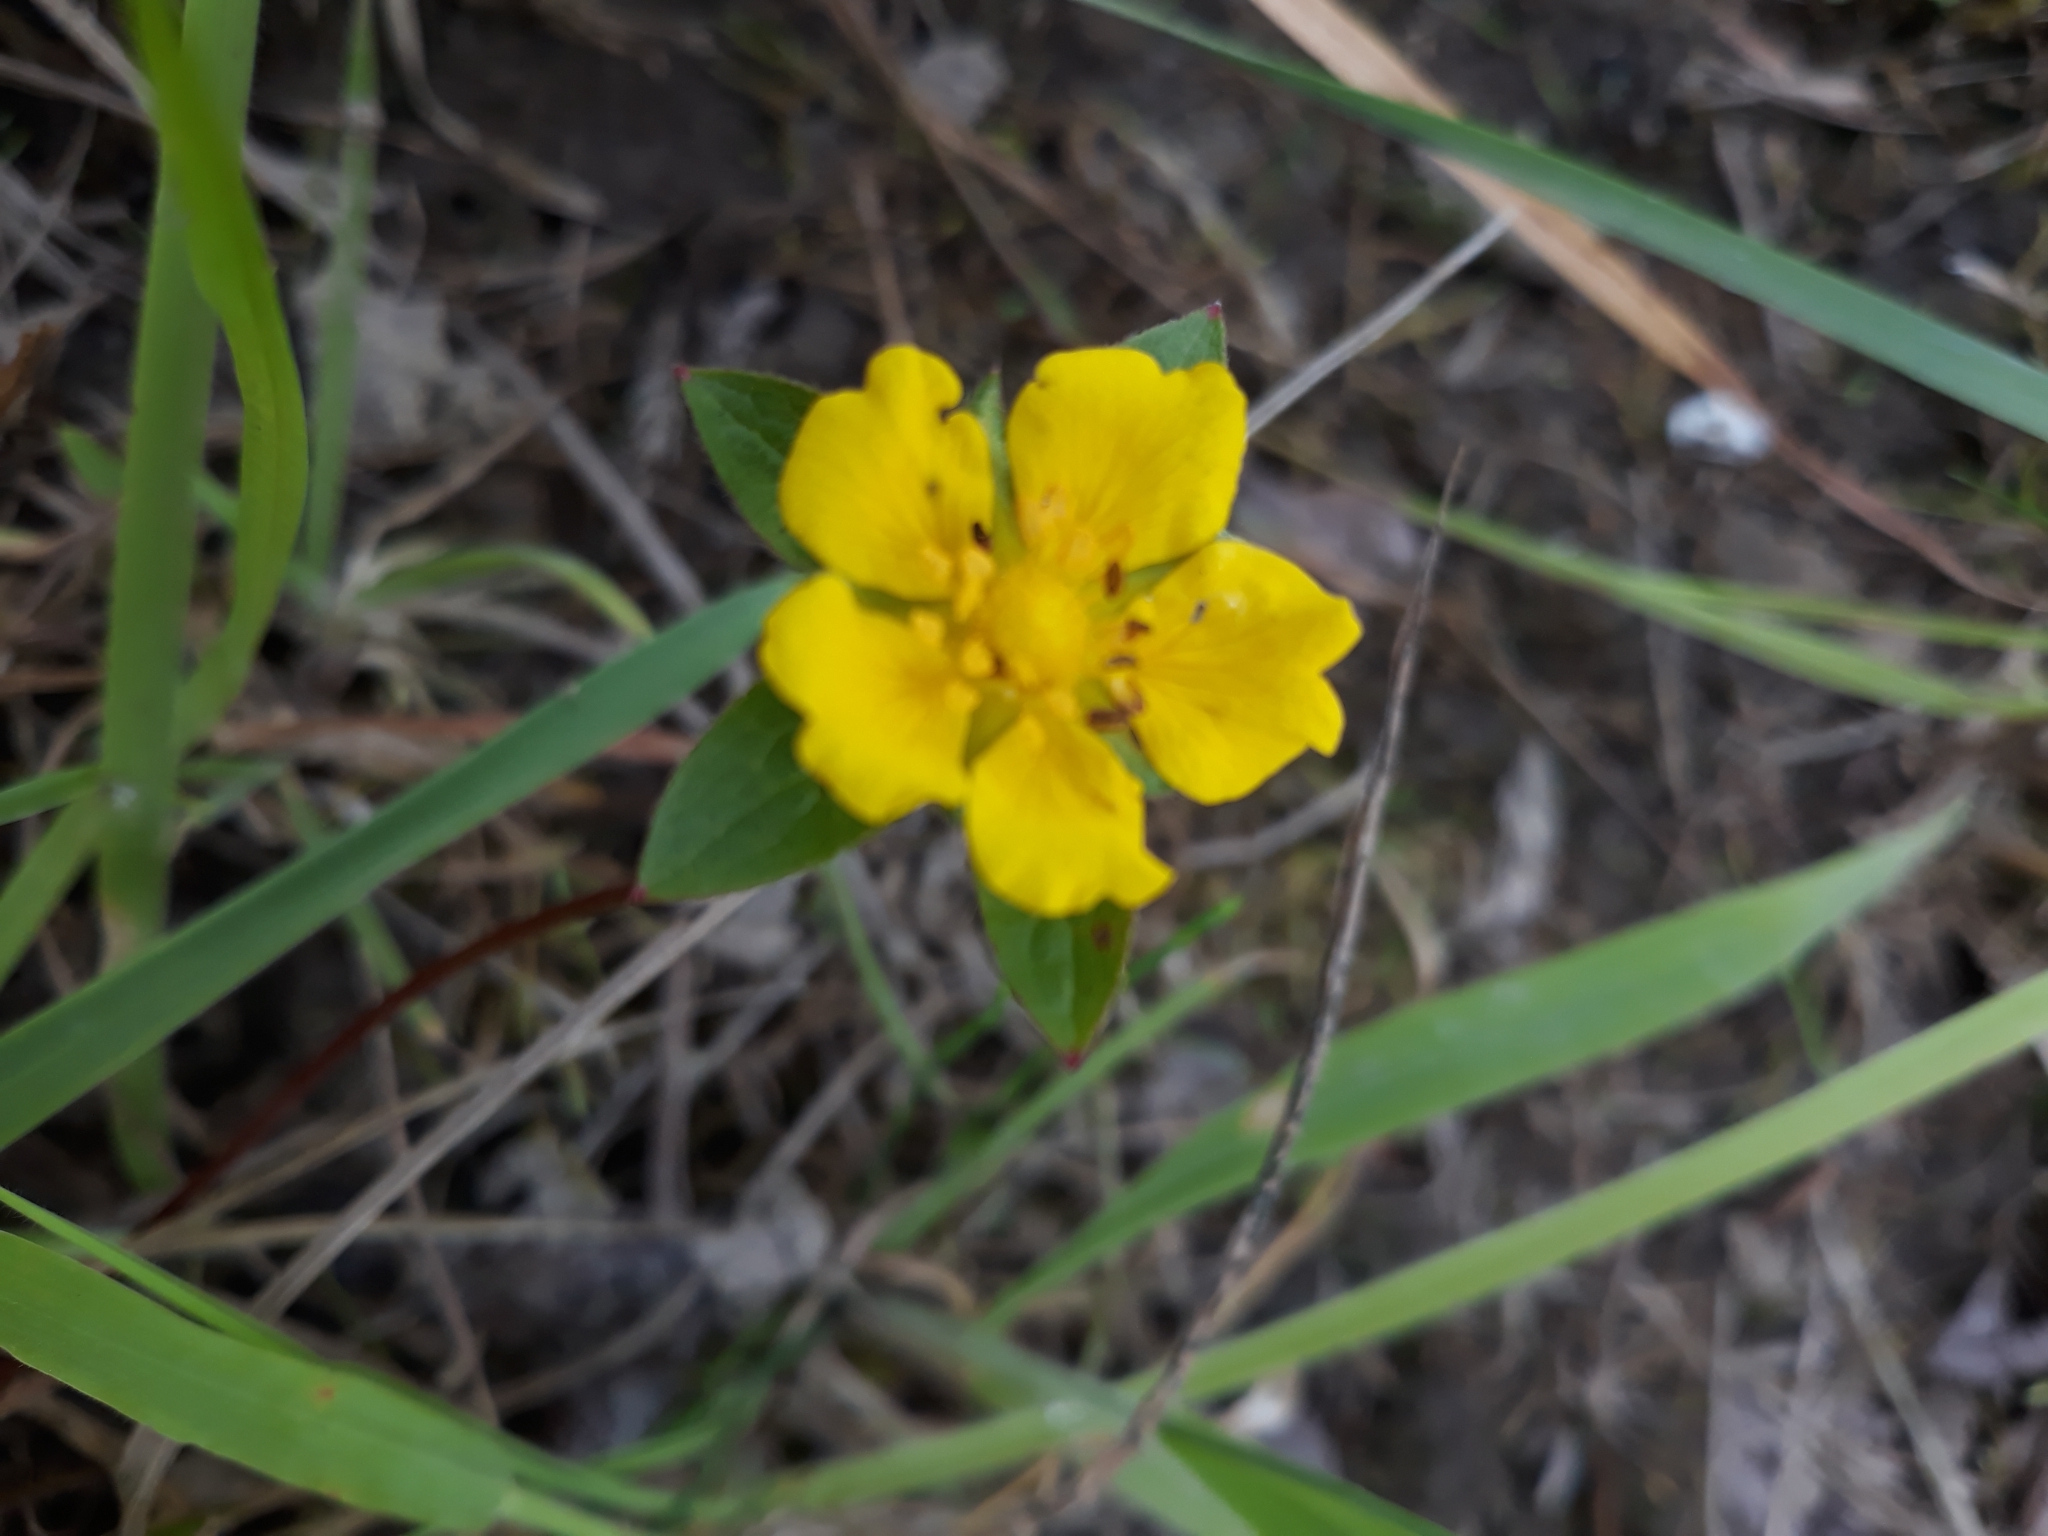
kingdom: Plantae
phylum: Tracheophyta
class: Magnoliopsida
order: Rosales
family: Rosaceae
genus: Potentilla
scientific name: Potentilla reptans
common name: Creeping cinquefoil
